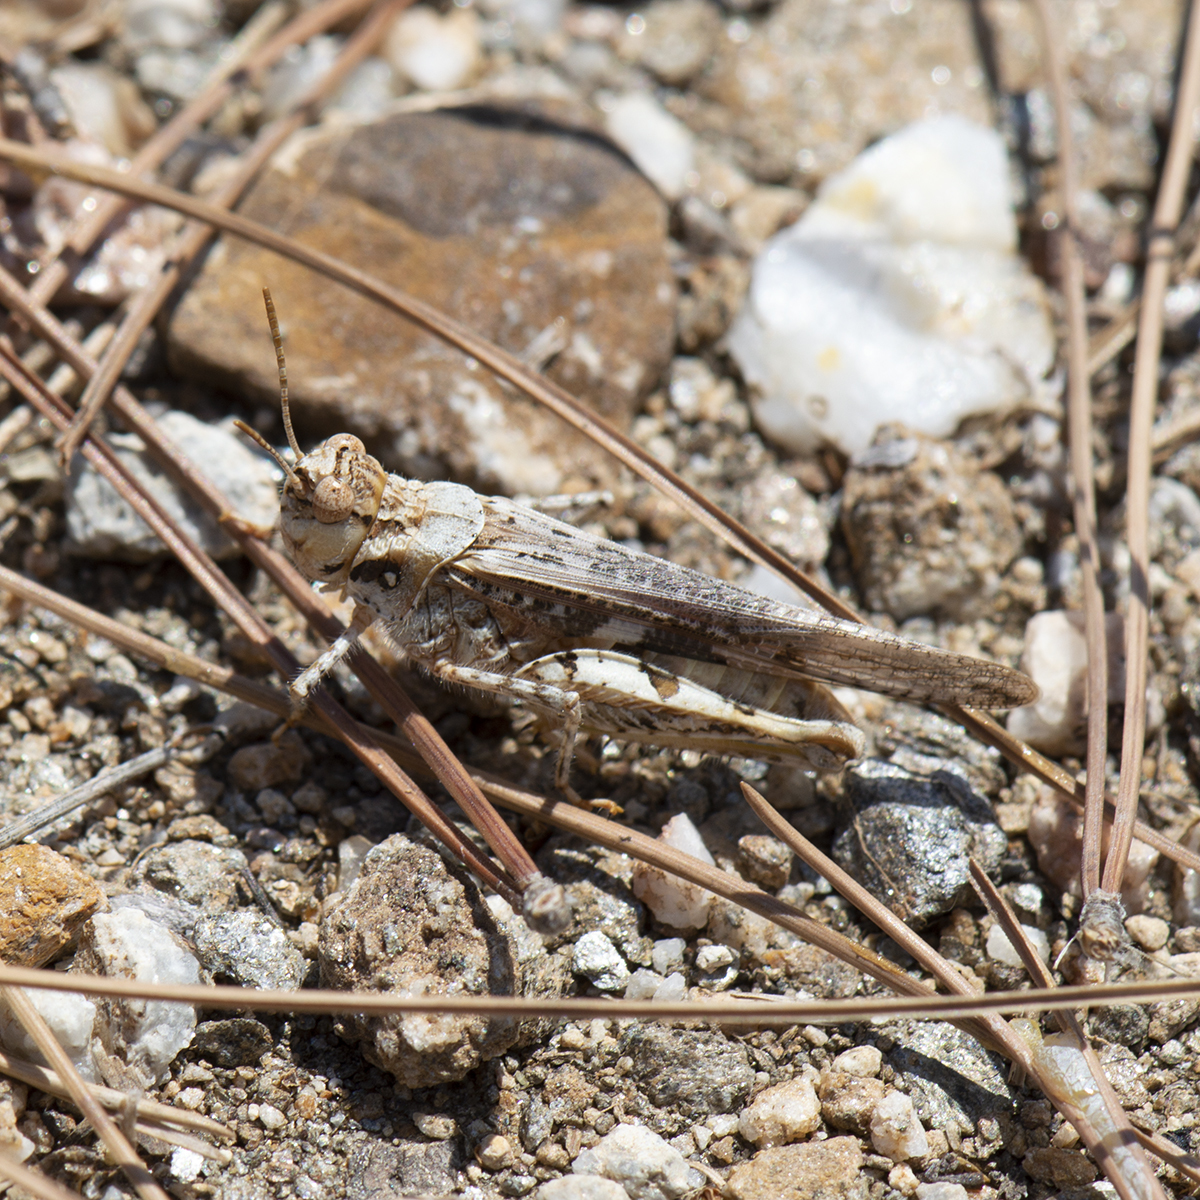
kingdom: Animalia
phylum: Arthropoda
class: Insecta
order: Orthoptera
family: Acrididae
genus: Acrotylus
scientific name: Acrotylus patruelis
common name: Slender burrowing grasshopper
